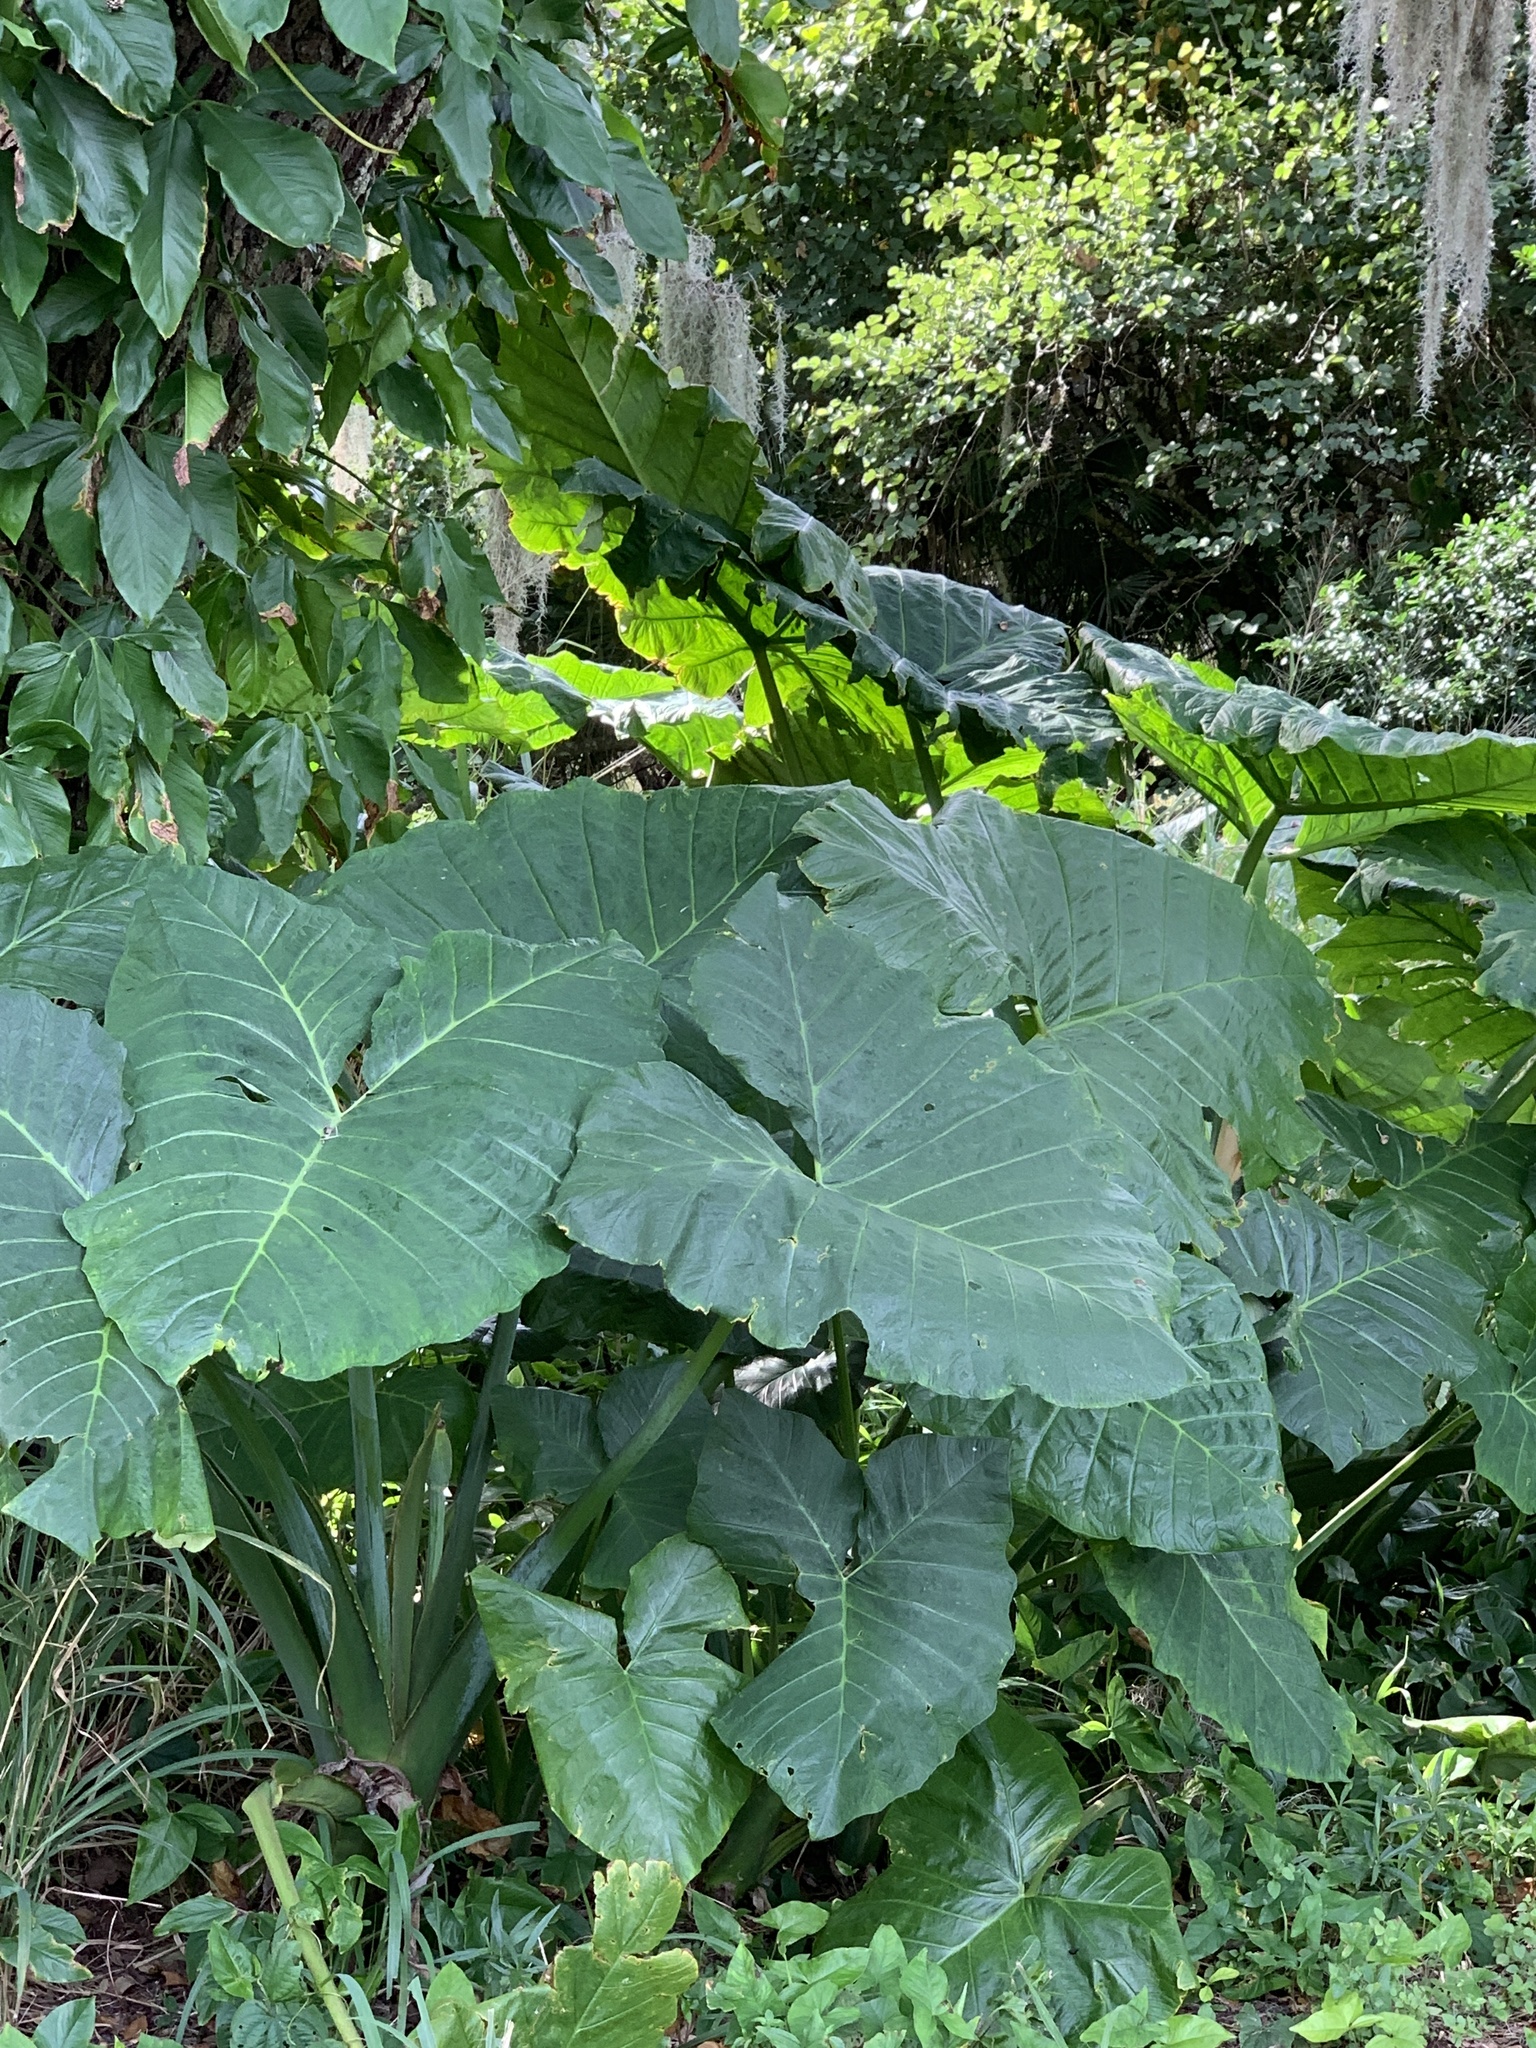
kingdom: Plantae
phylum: Tracheophyta
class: Liliopsida
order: Alismatales
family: Araceae
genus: Alocasia
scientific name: Alocasia brisbanensis
